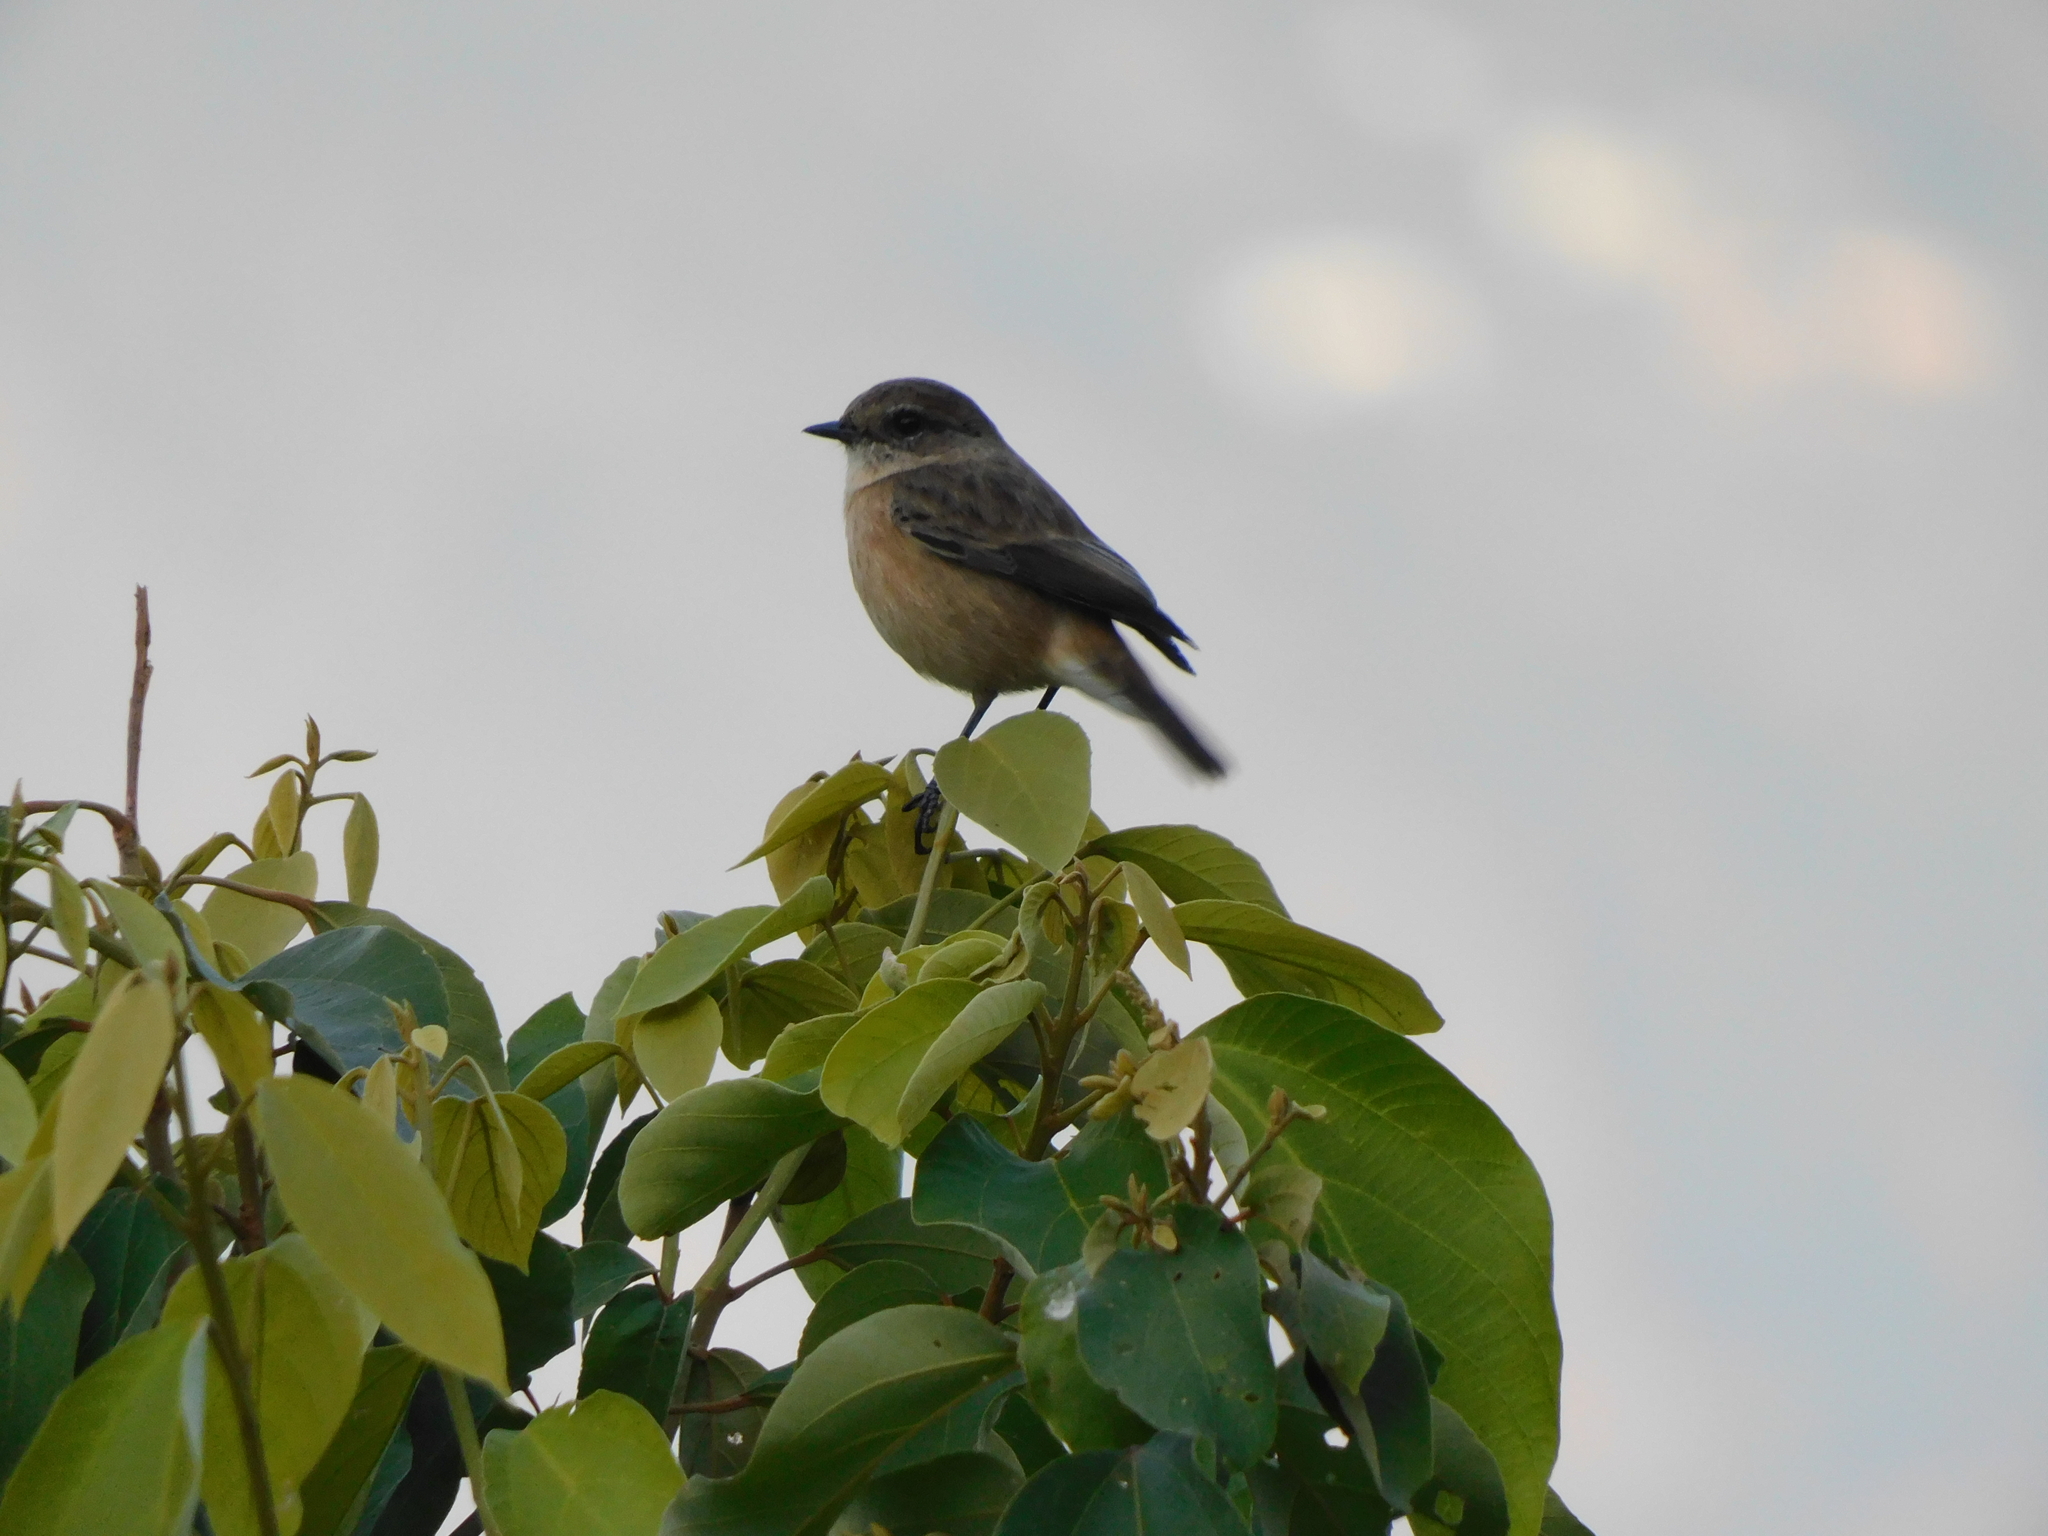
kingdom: Animalia
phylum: Chordata
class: Aves
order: Passeriformes
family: Muscicapidae
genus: Saxicola
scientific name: Saxicola maurus
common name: Siberian stonechat
